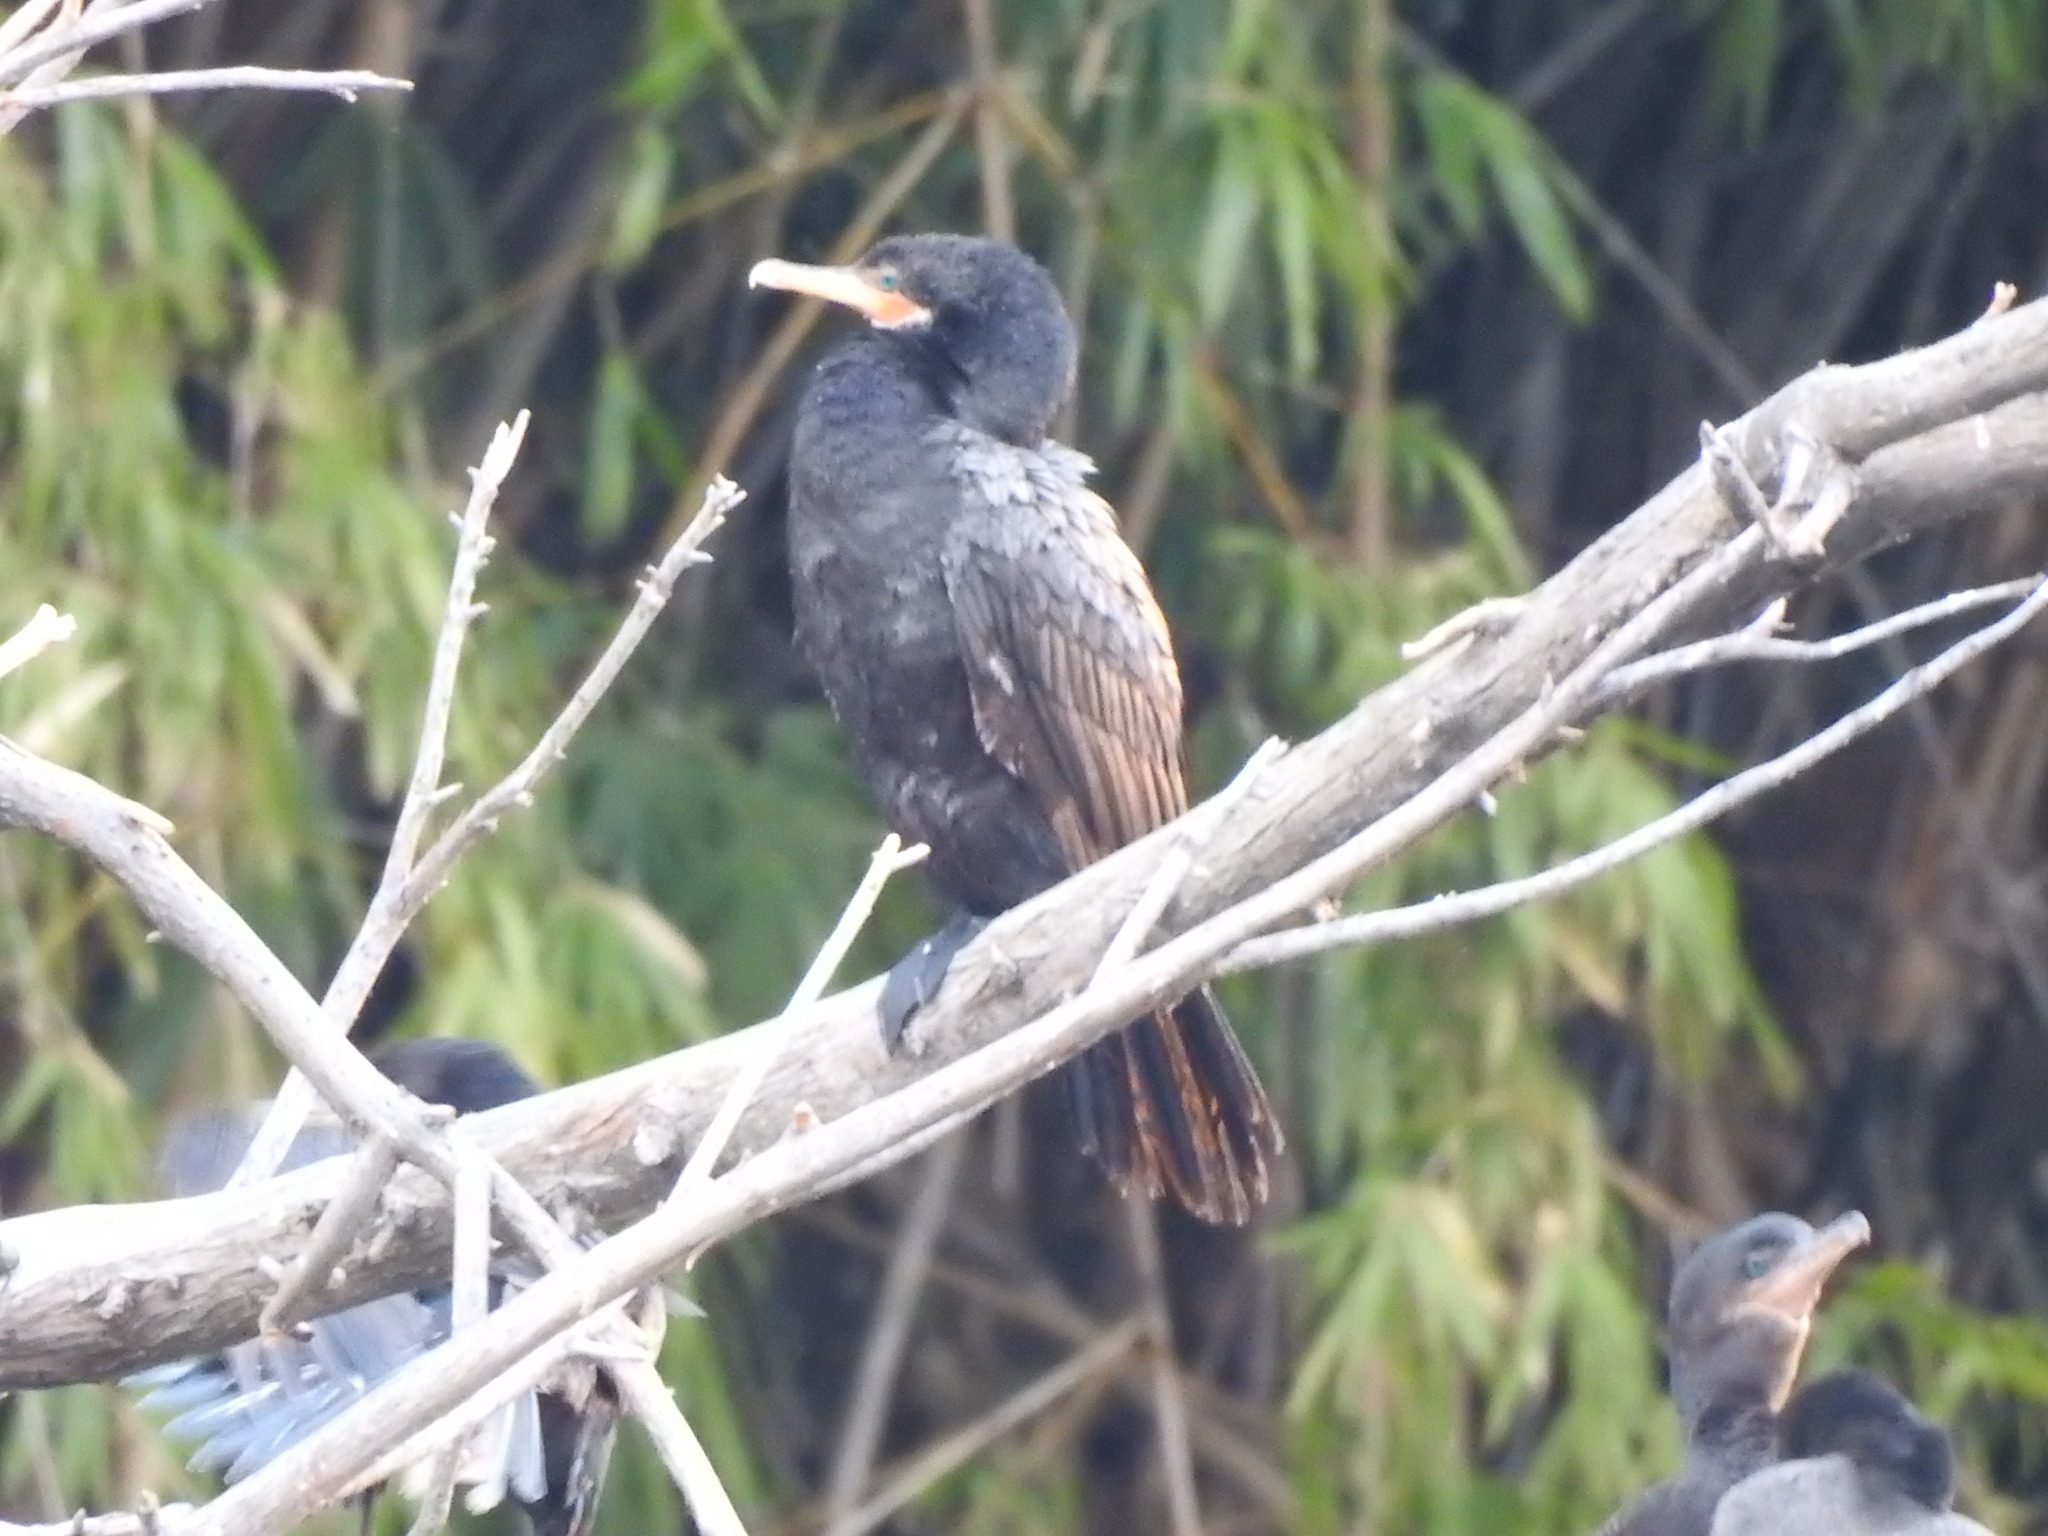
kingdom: Animalia
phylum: Chordata
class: Aves
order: Suliformes
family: Phalacrocoracidae
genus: Phalacrocorax
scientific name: Phalacrocorax brasilianus
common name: Neotropic cormorant
